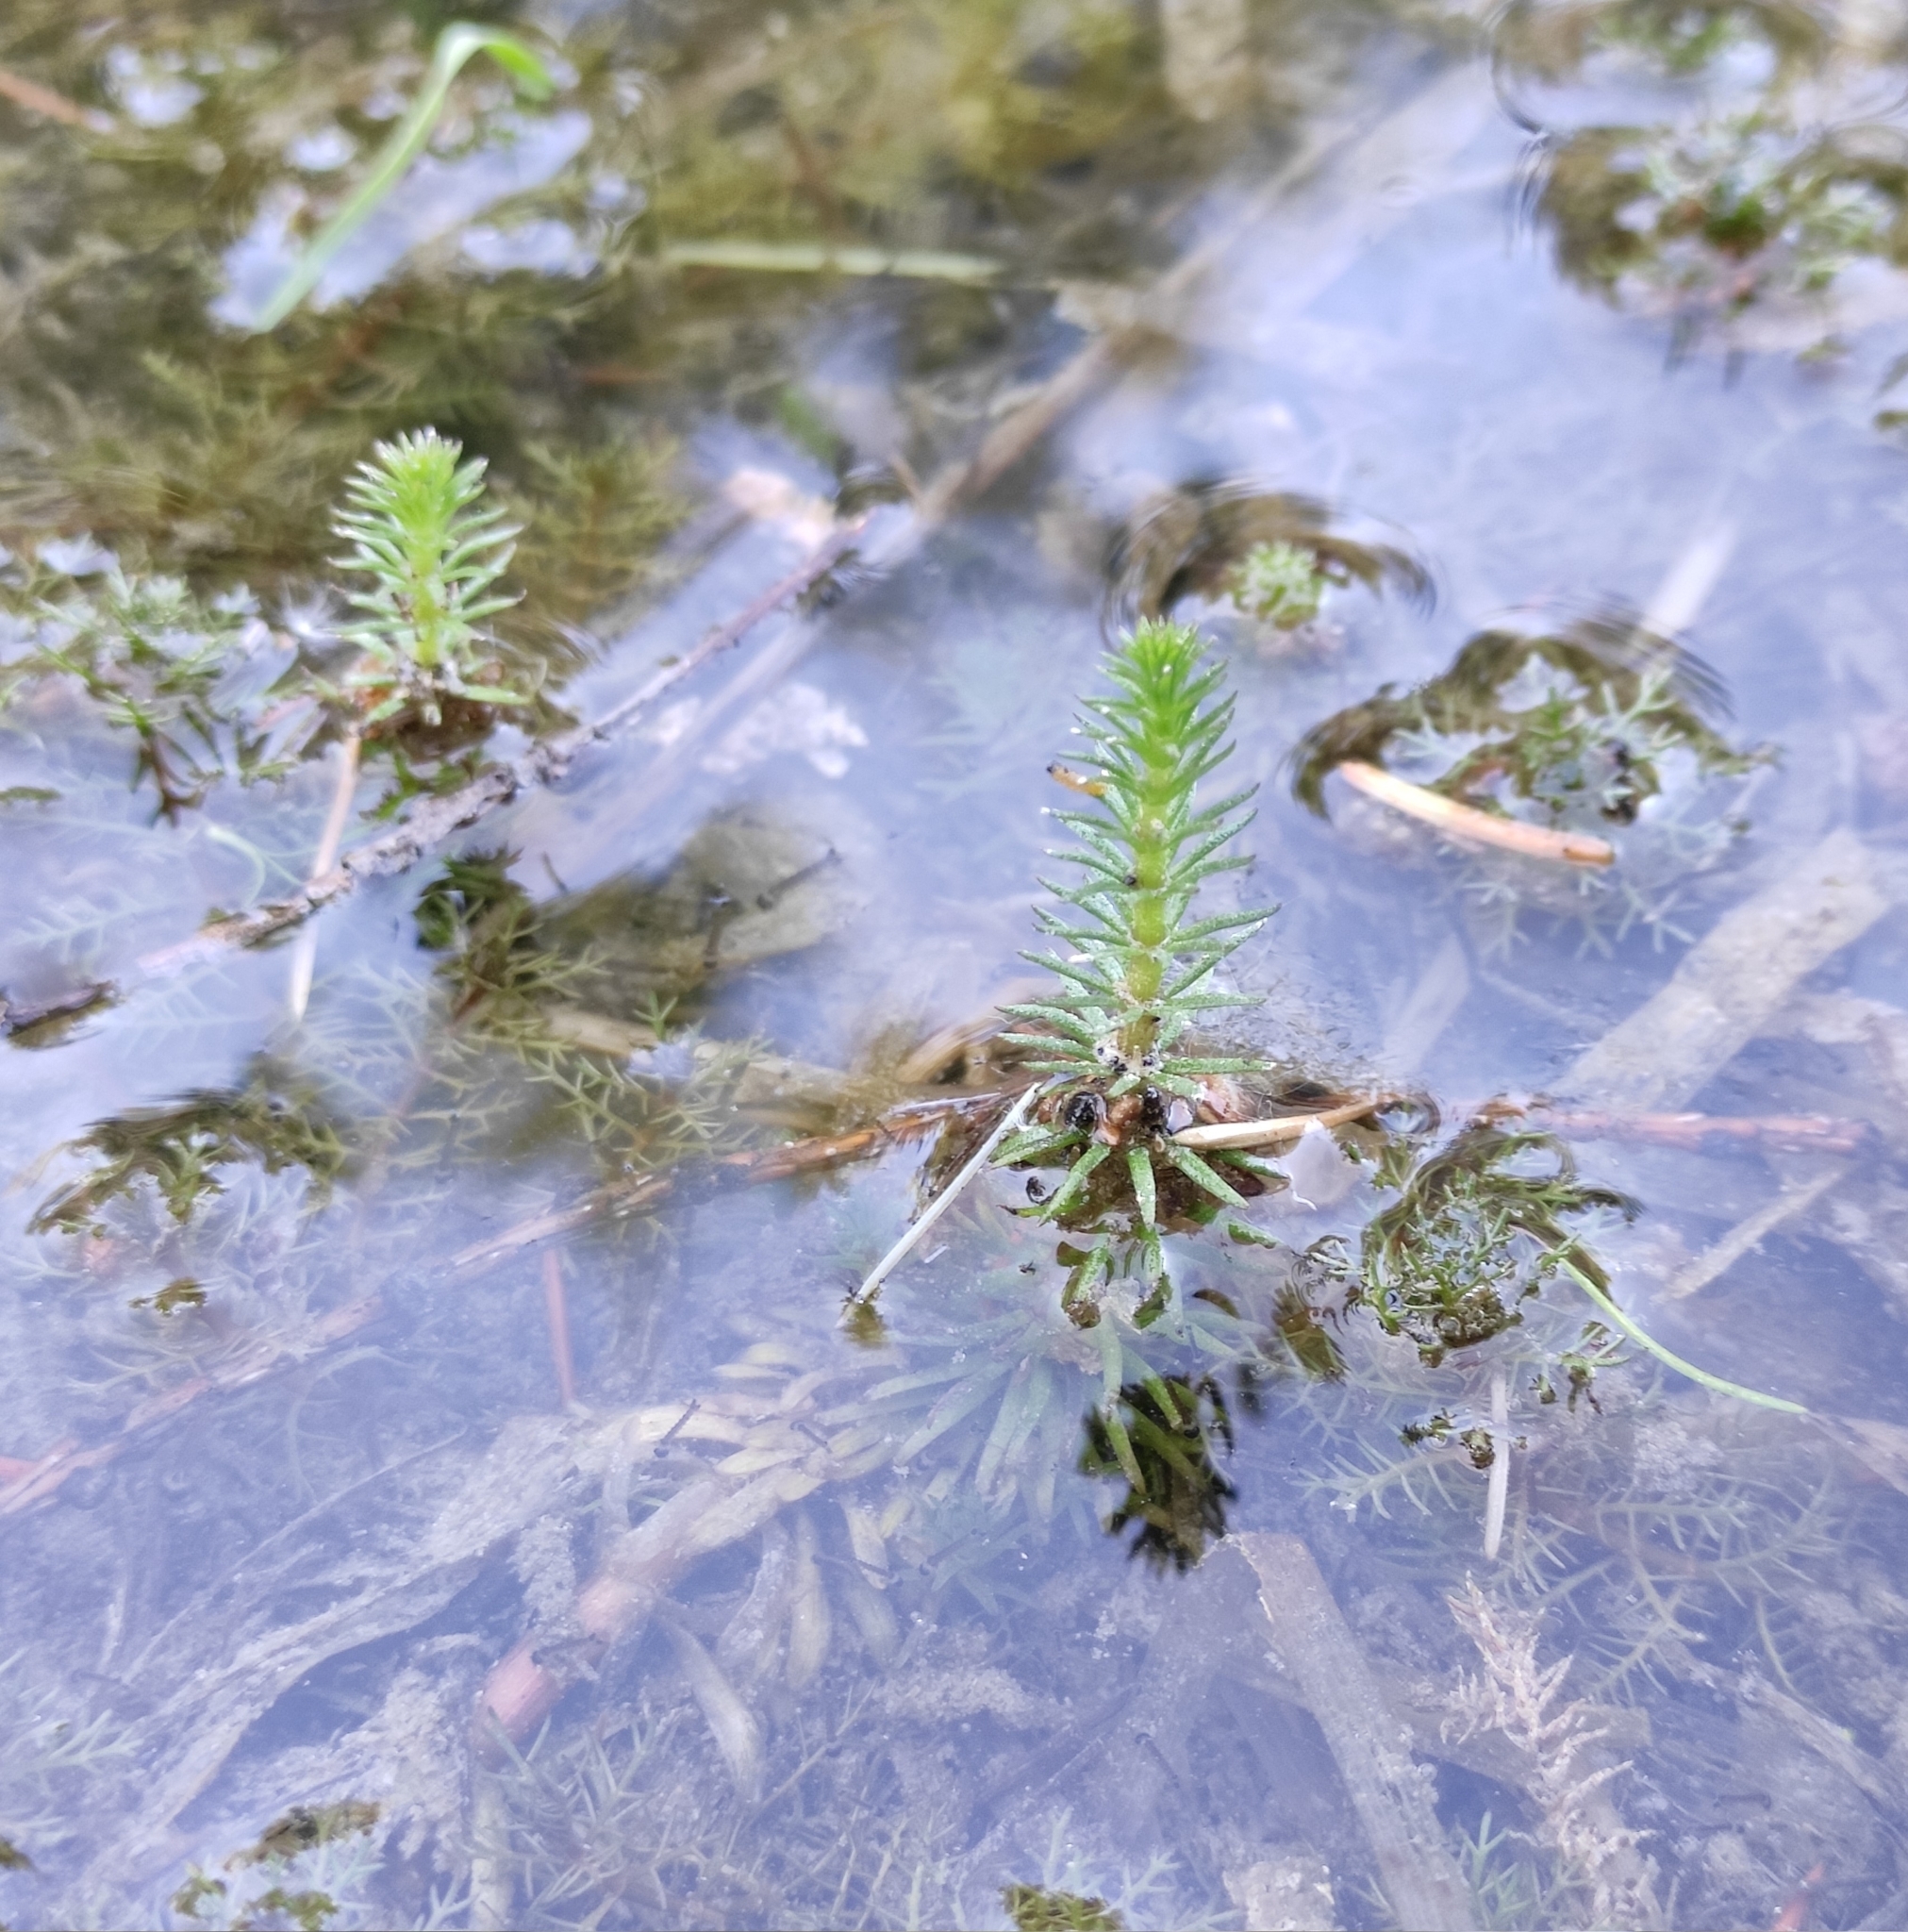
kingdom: Plantae
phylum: Tracheophyta
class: Magnoliopsida
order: Lamiales
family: Plantaginaceae
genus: Hippuris
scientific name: Hippuris vulgaris
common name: Mare's-tail
